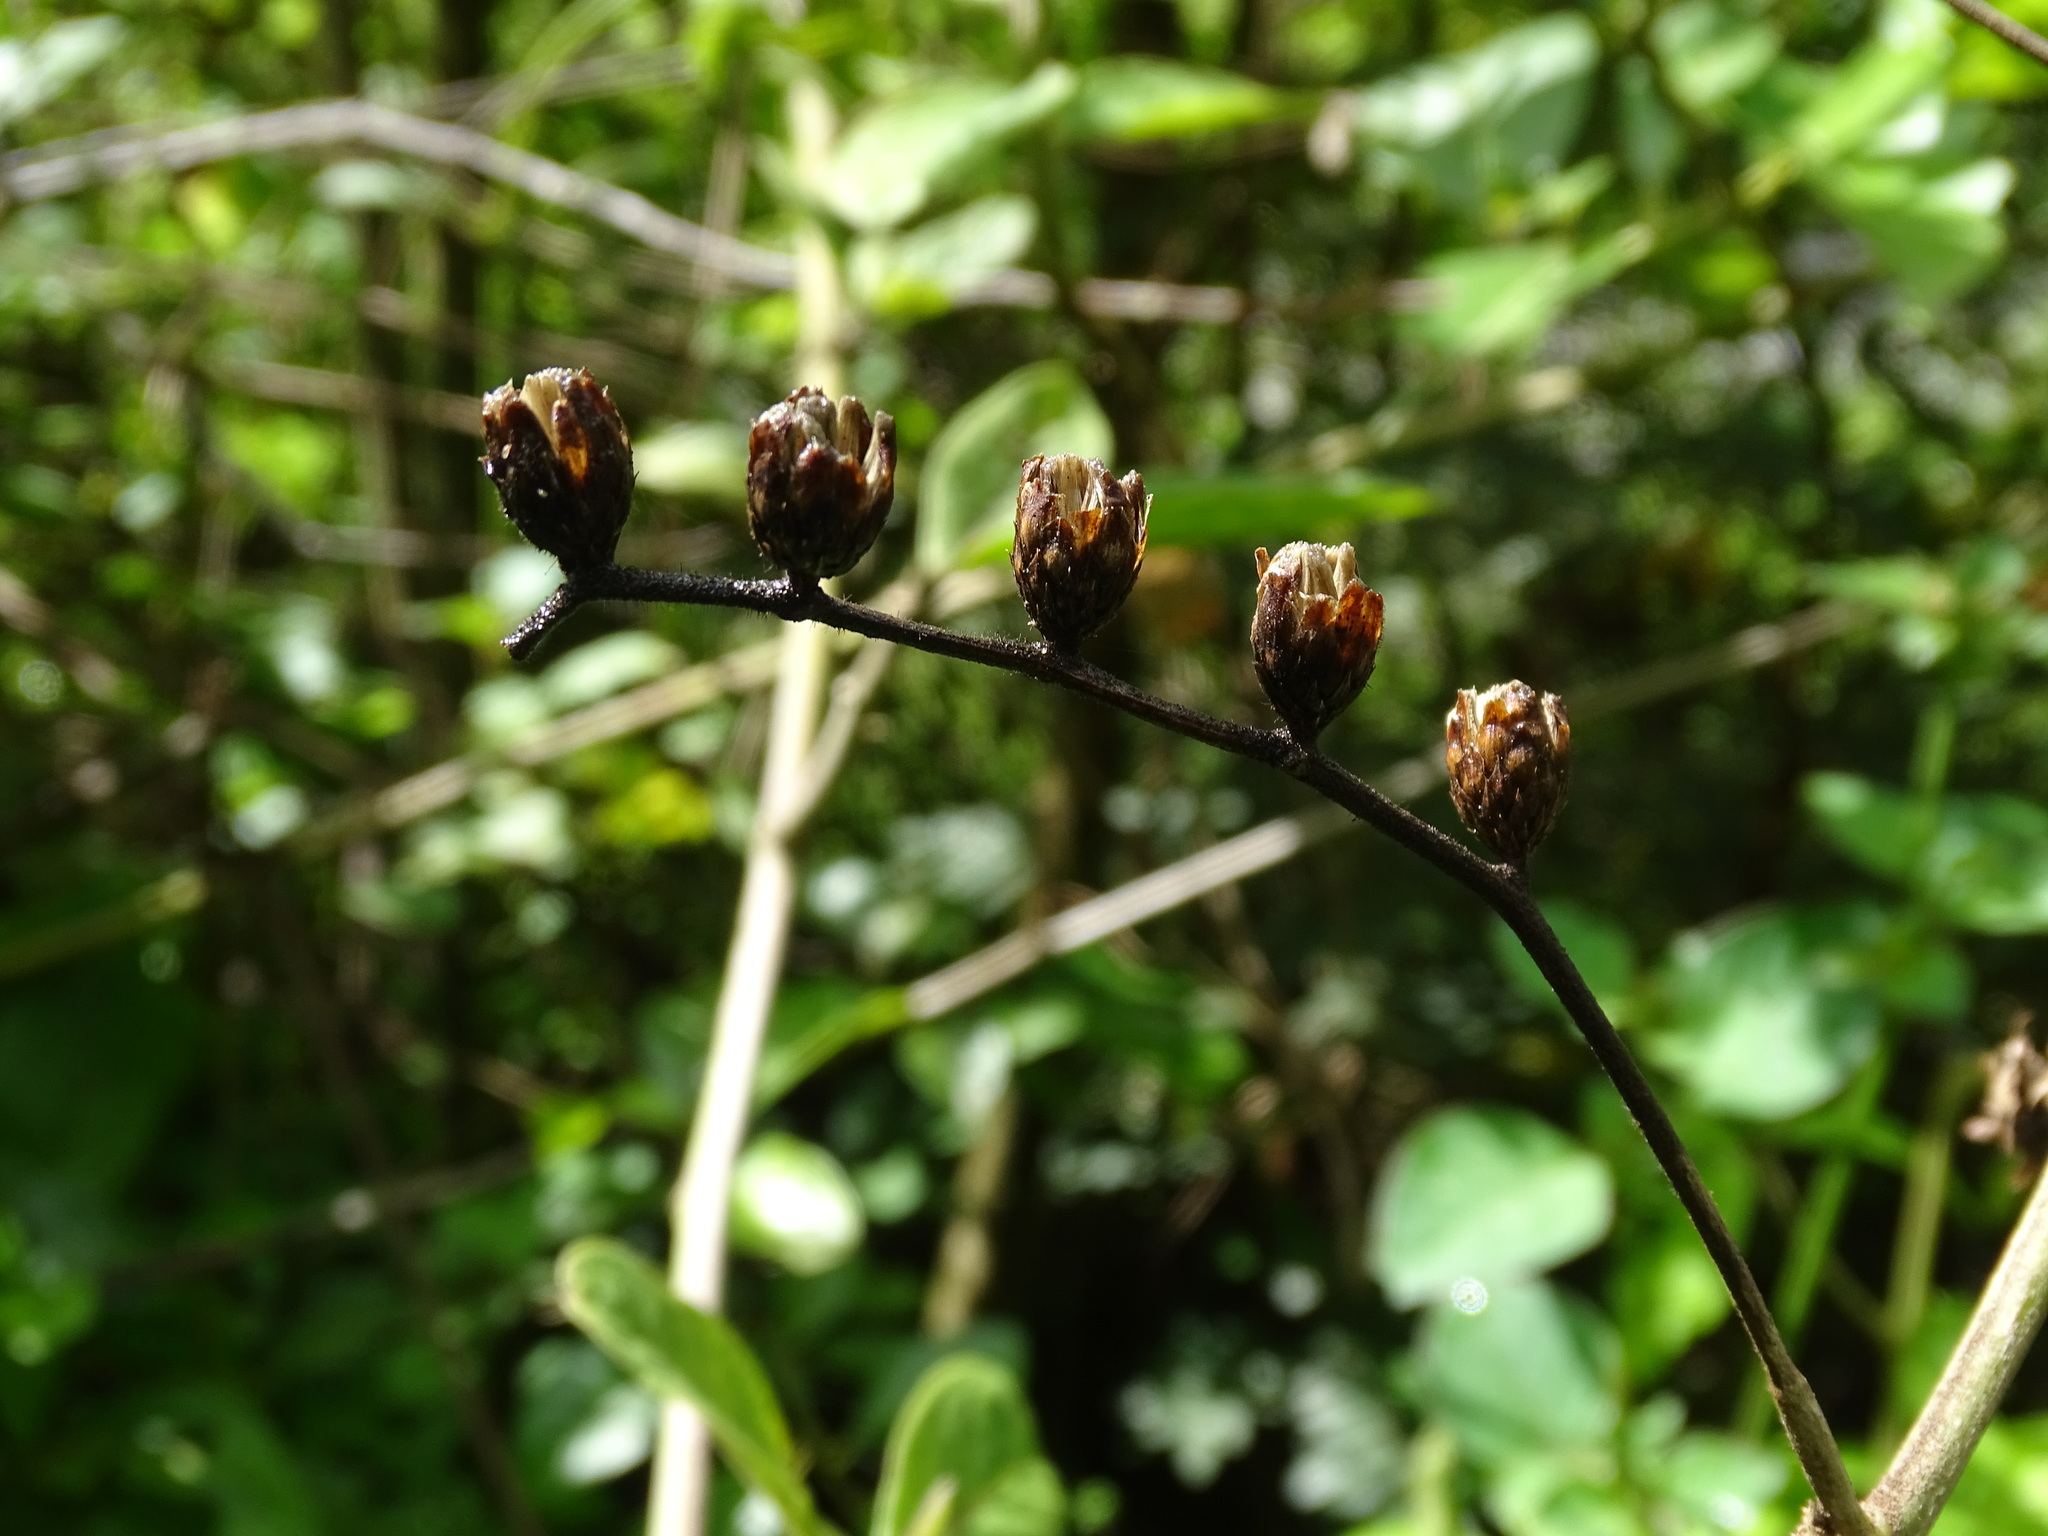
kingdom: Plantae
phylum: Tracheophyta
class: Magnoliopsida
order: Asterales
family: Asteraceae
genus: Lepidaploa
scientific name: Lepidaploa tortuosa
